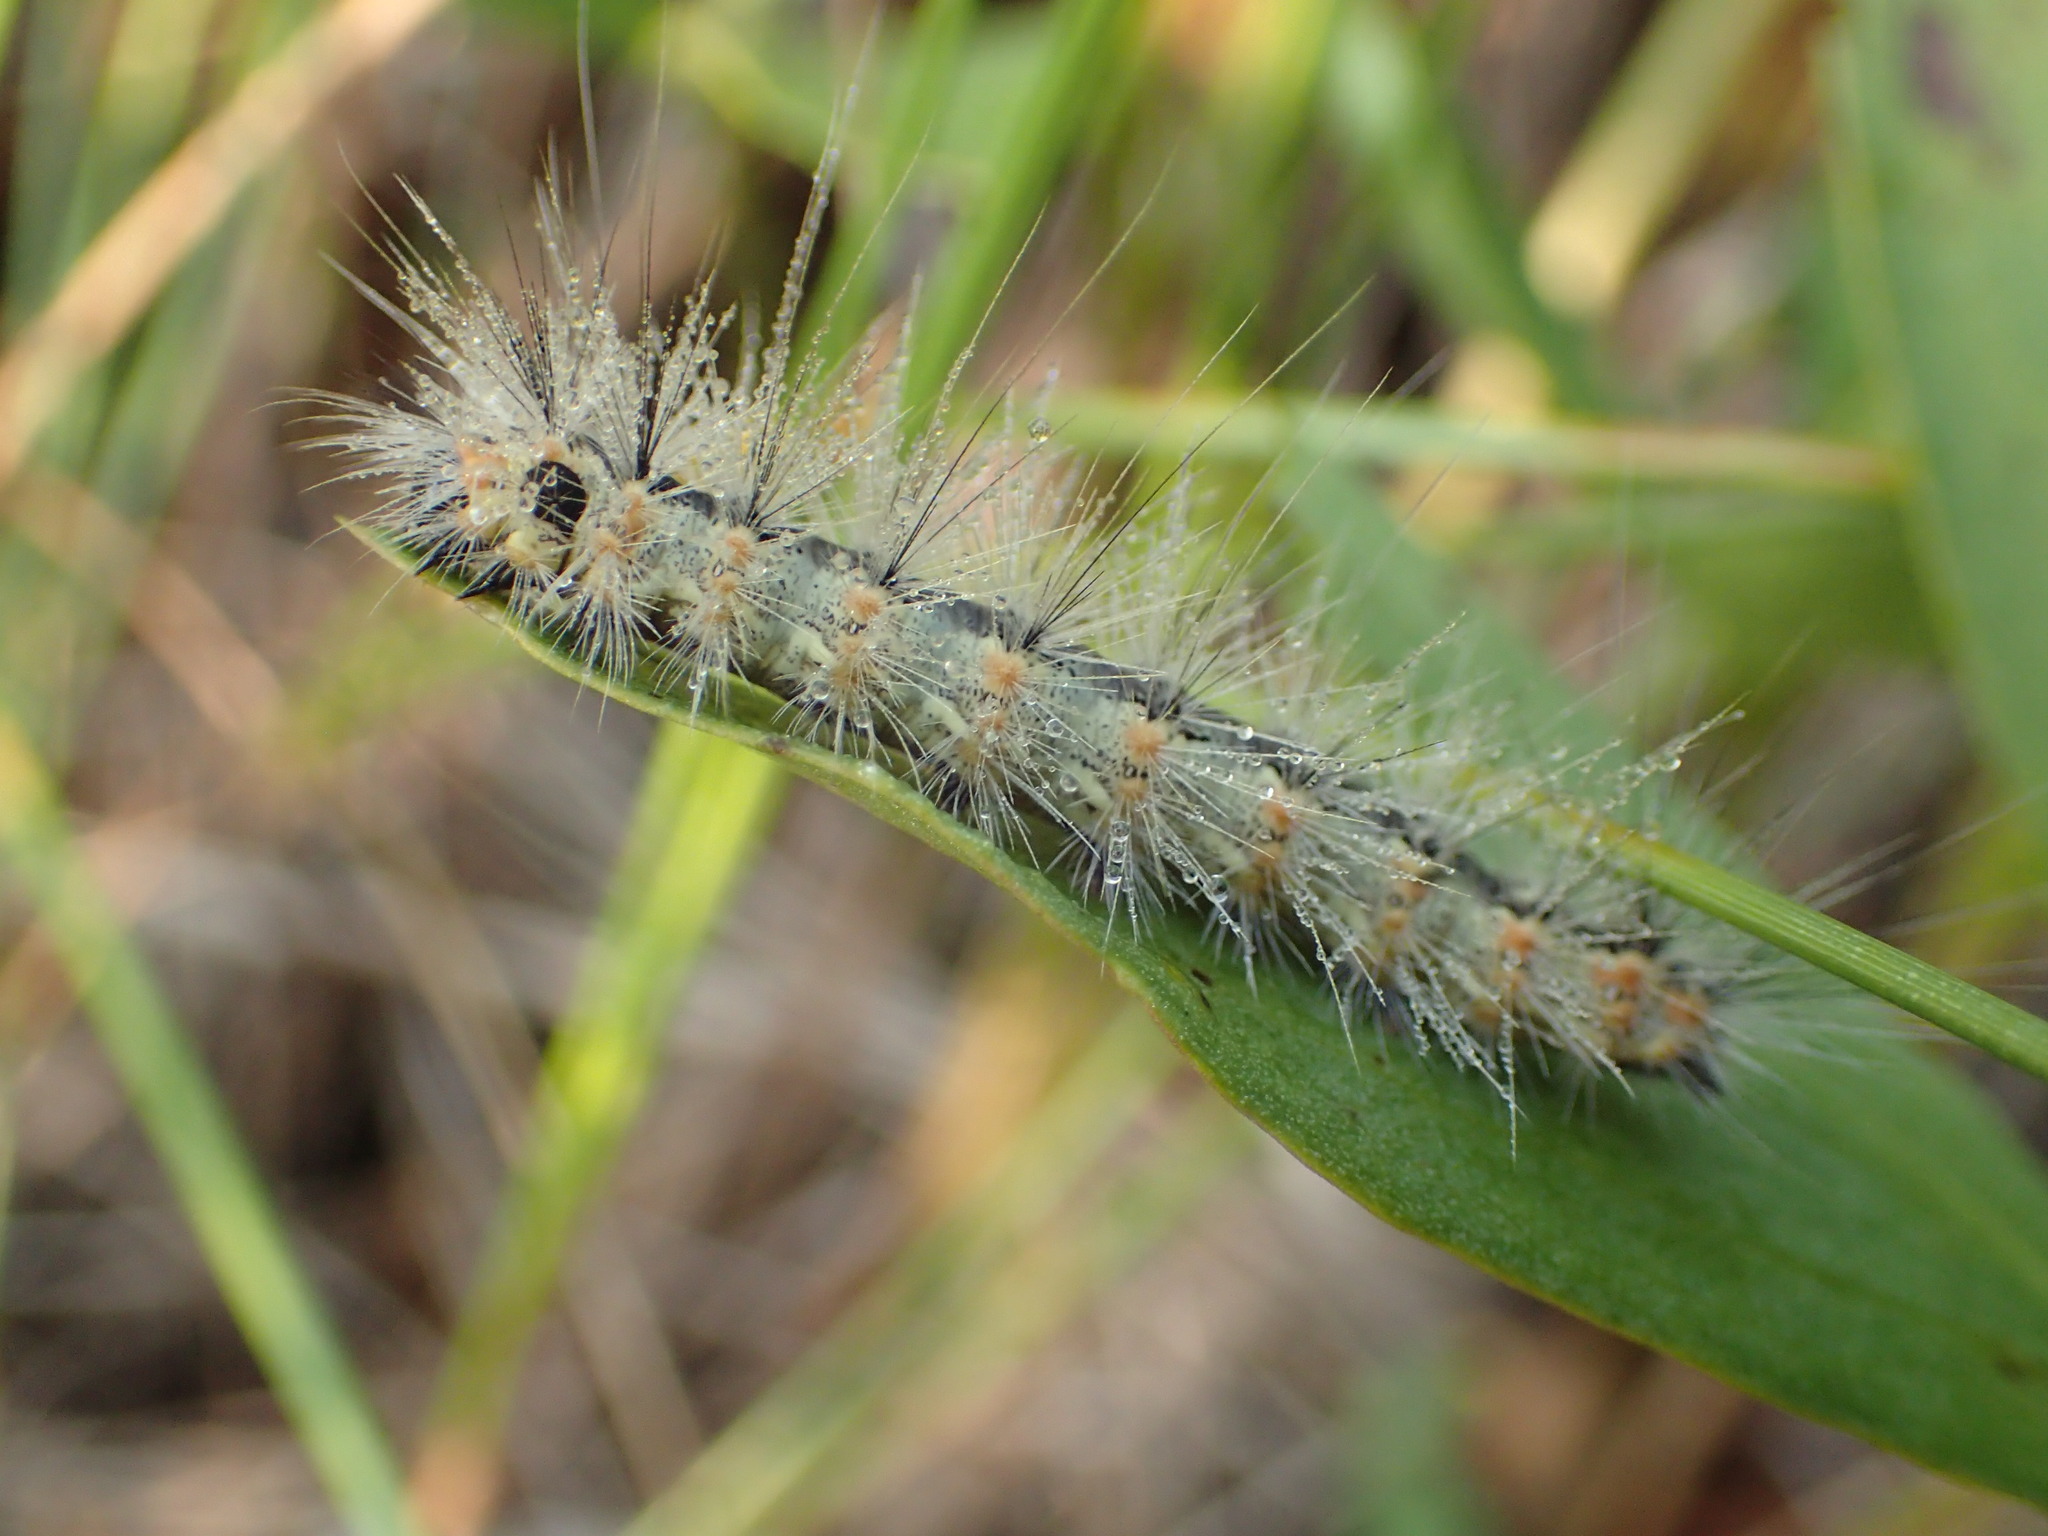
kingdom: Animalia
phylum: Arthropoda
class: Insecta
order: Lepidoptera
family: Erebidae
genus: Hyphantria
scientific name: Hyphantria cunea
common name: American white moth
